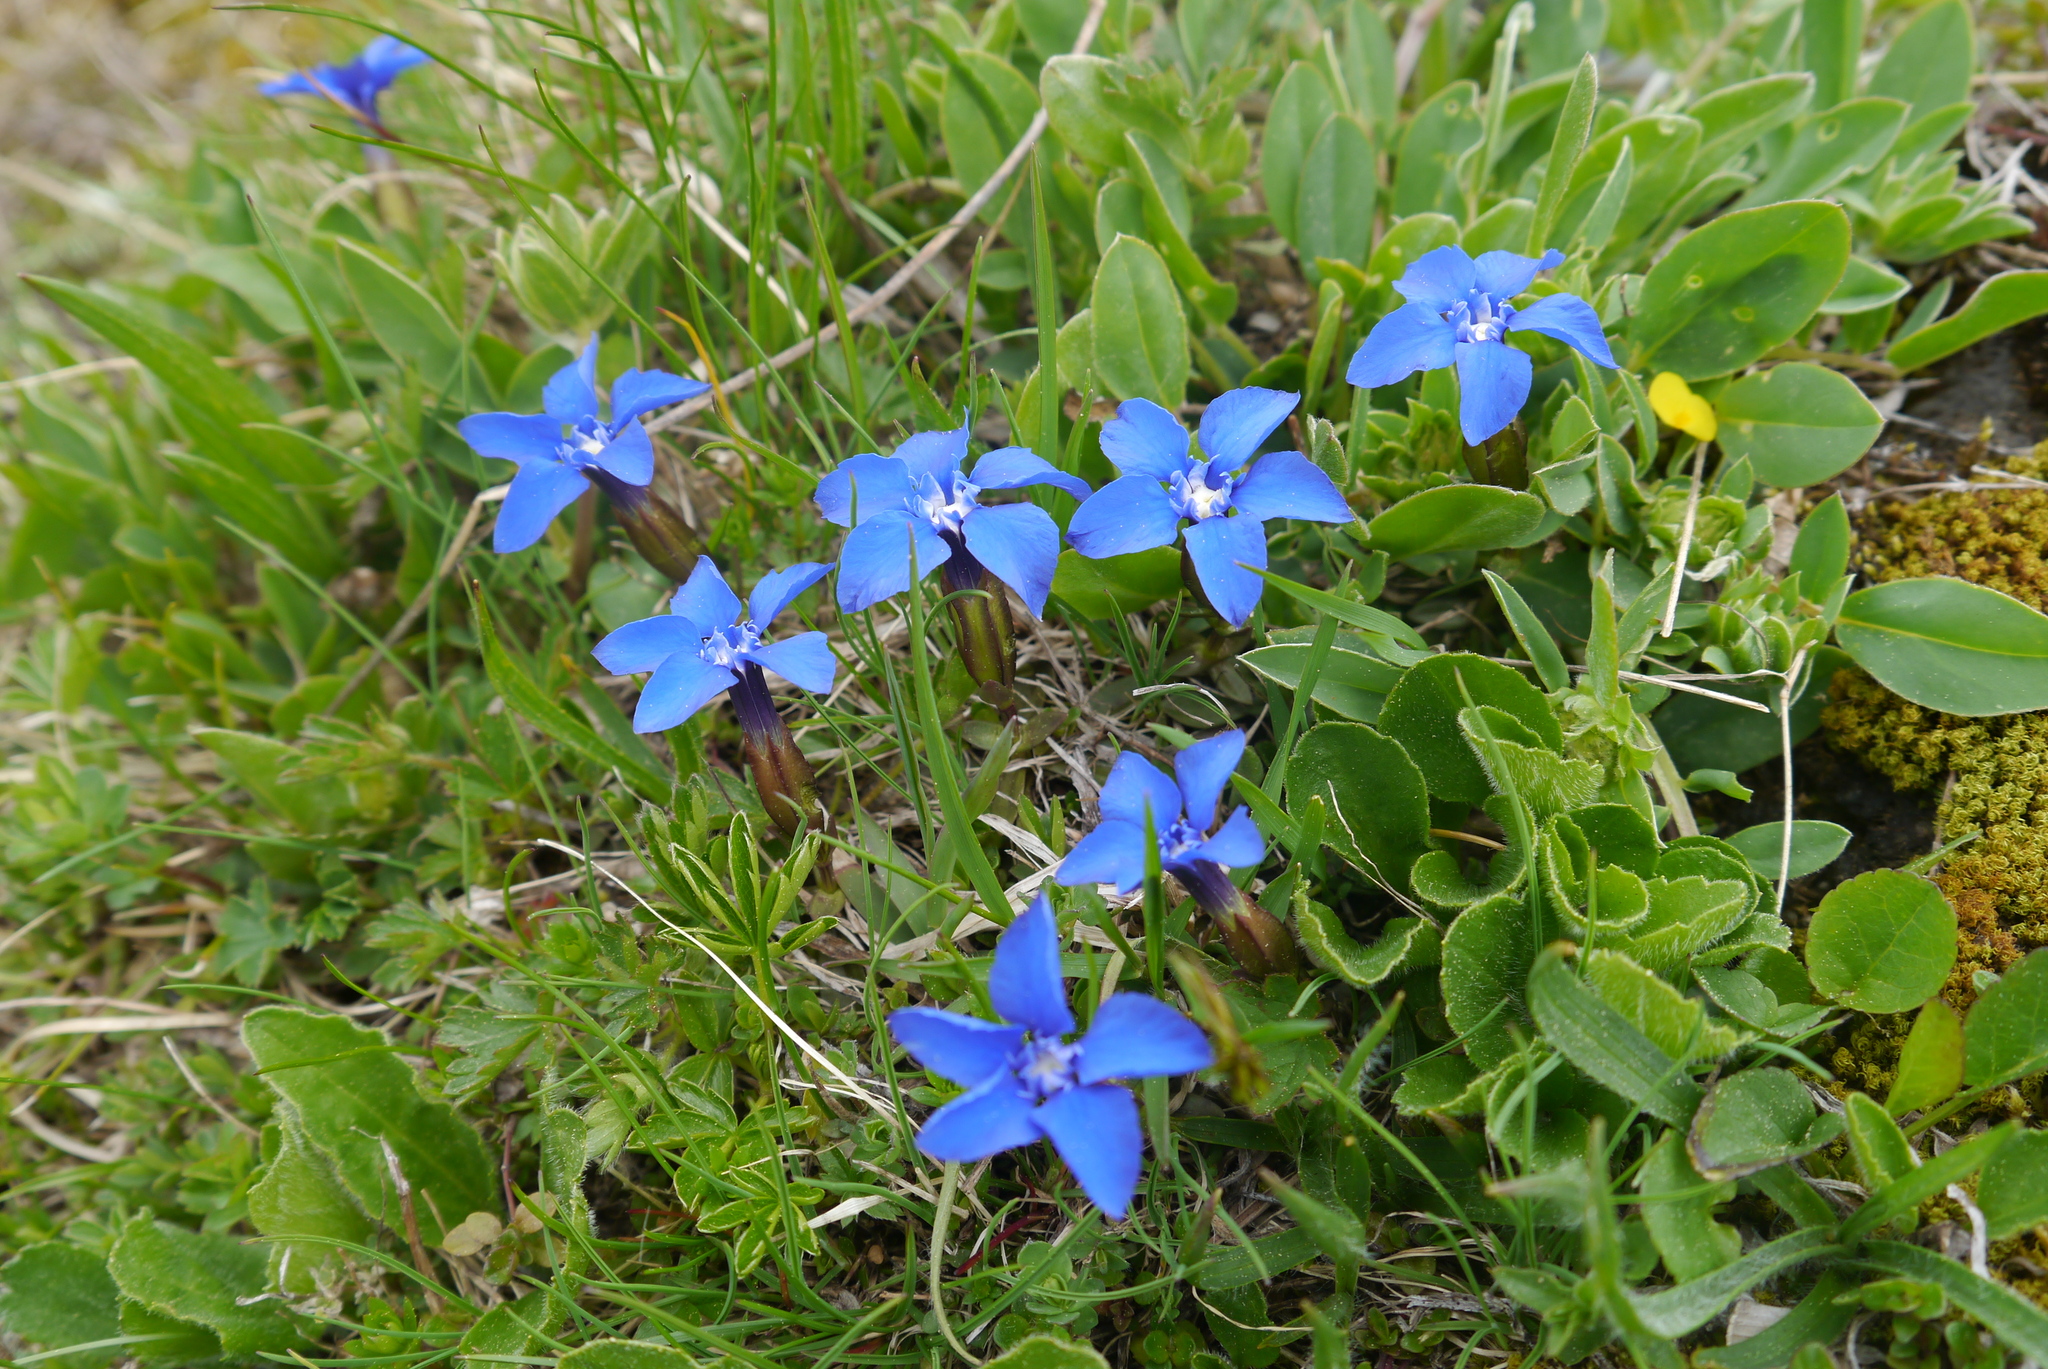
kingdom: Plantae
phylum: Tracheophyta
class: Magnoliopsida
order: Gentianales
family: Gentianaceae
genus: Gentiana
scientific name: Gentiana verna
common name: Spring gentian
